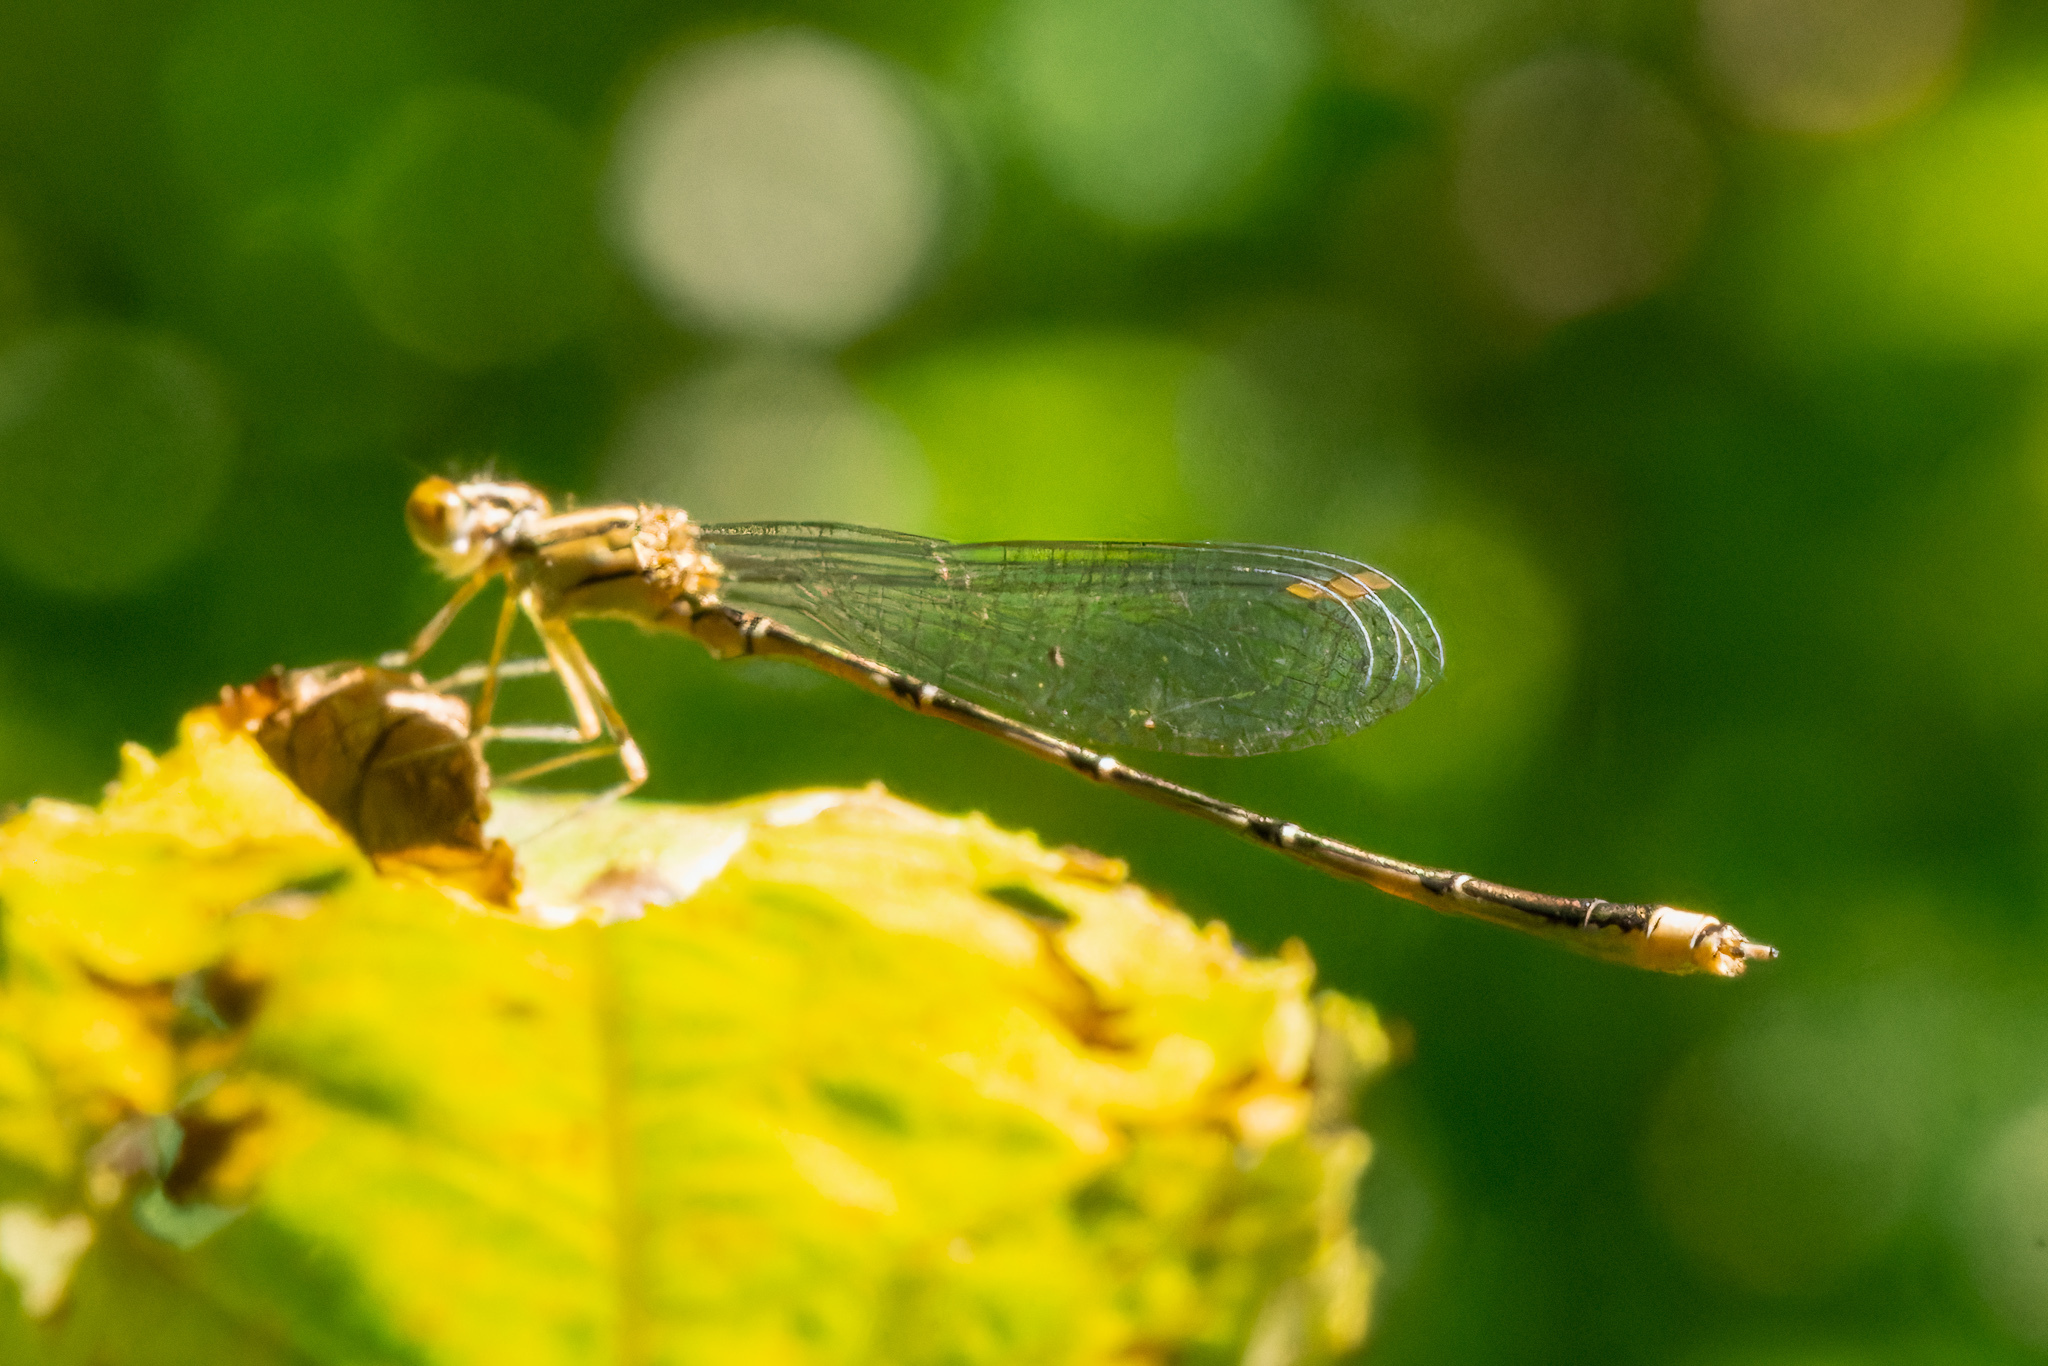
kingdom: Animalia
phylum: Arthropoda
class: Insecta
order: Odonata
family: Coenagrionidae
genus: Enallagma
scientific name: Enallagma signatum
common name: Orange bluet
